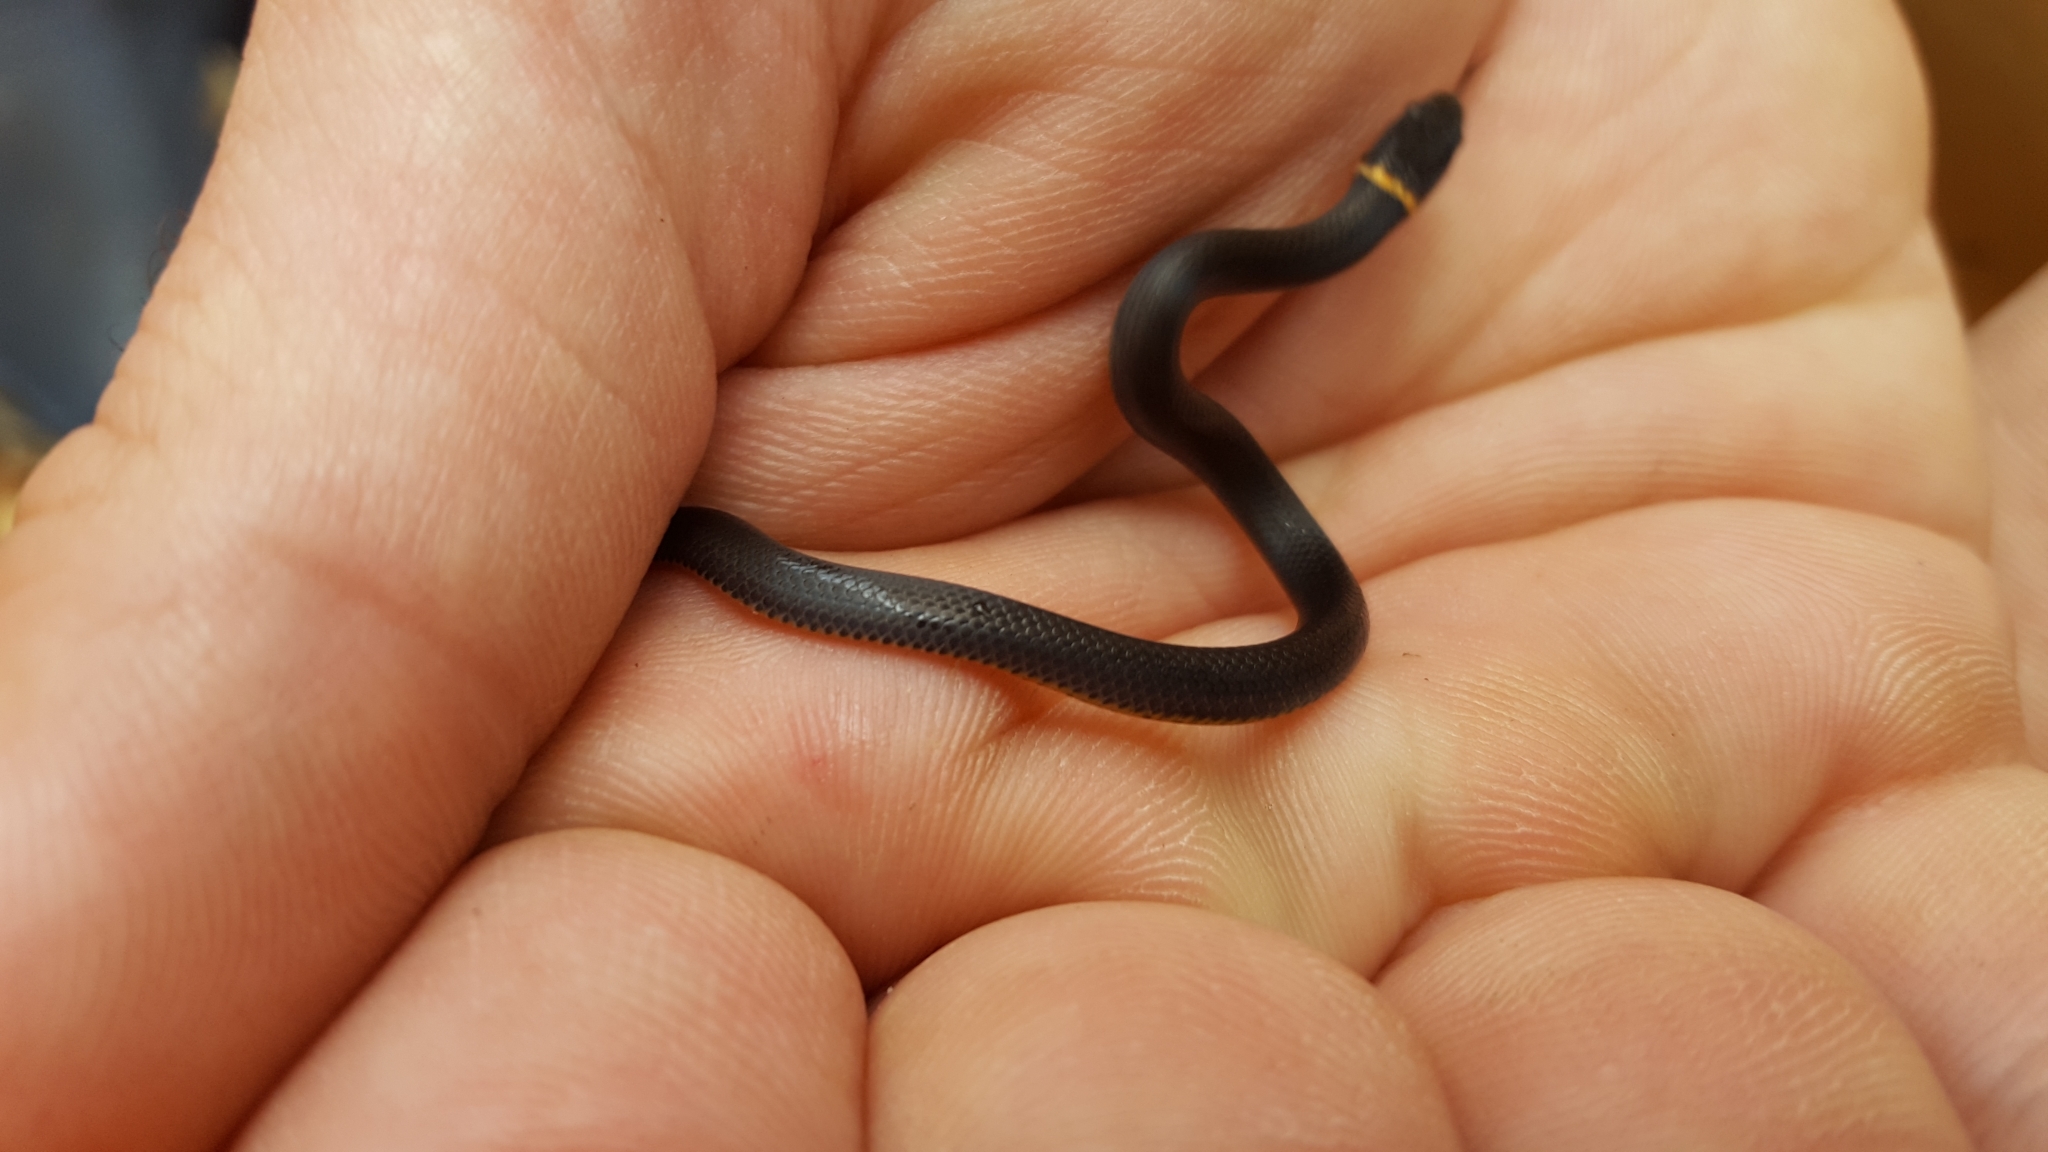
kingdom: Animalia
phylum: Chordata
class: Squamata
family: Colubridae
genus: Diadophis
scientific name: Diadophis punctatus
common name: Ringneck snake
